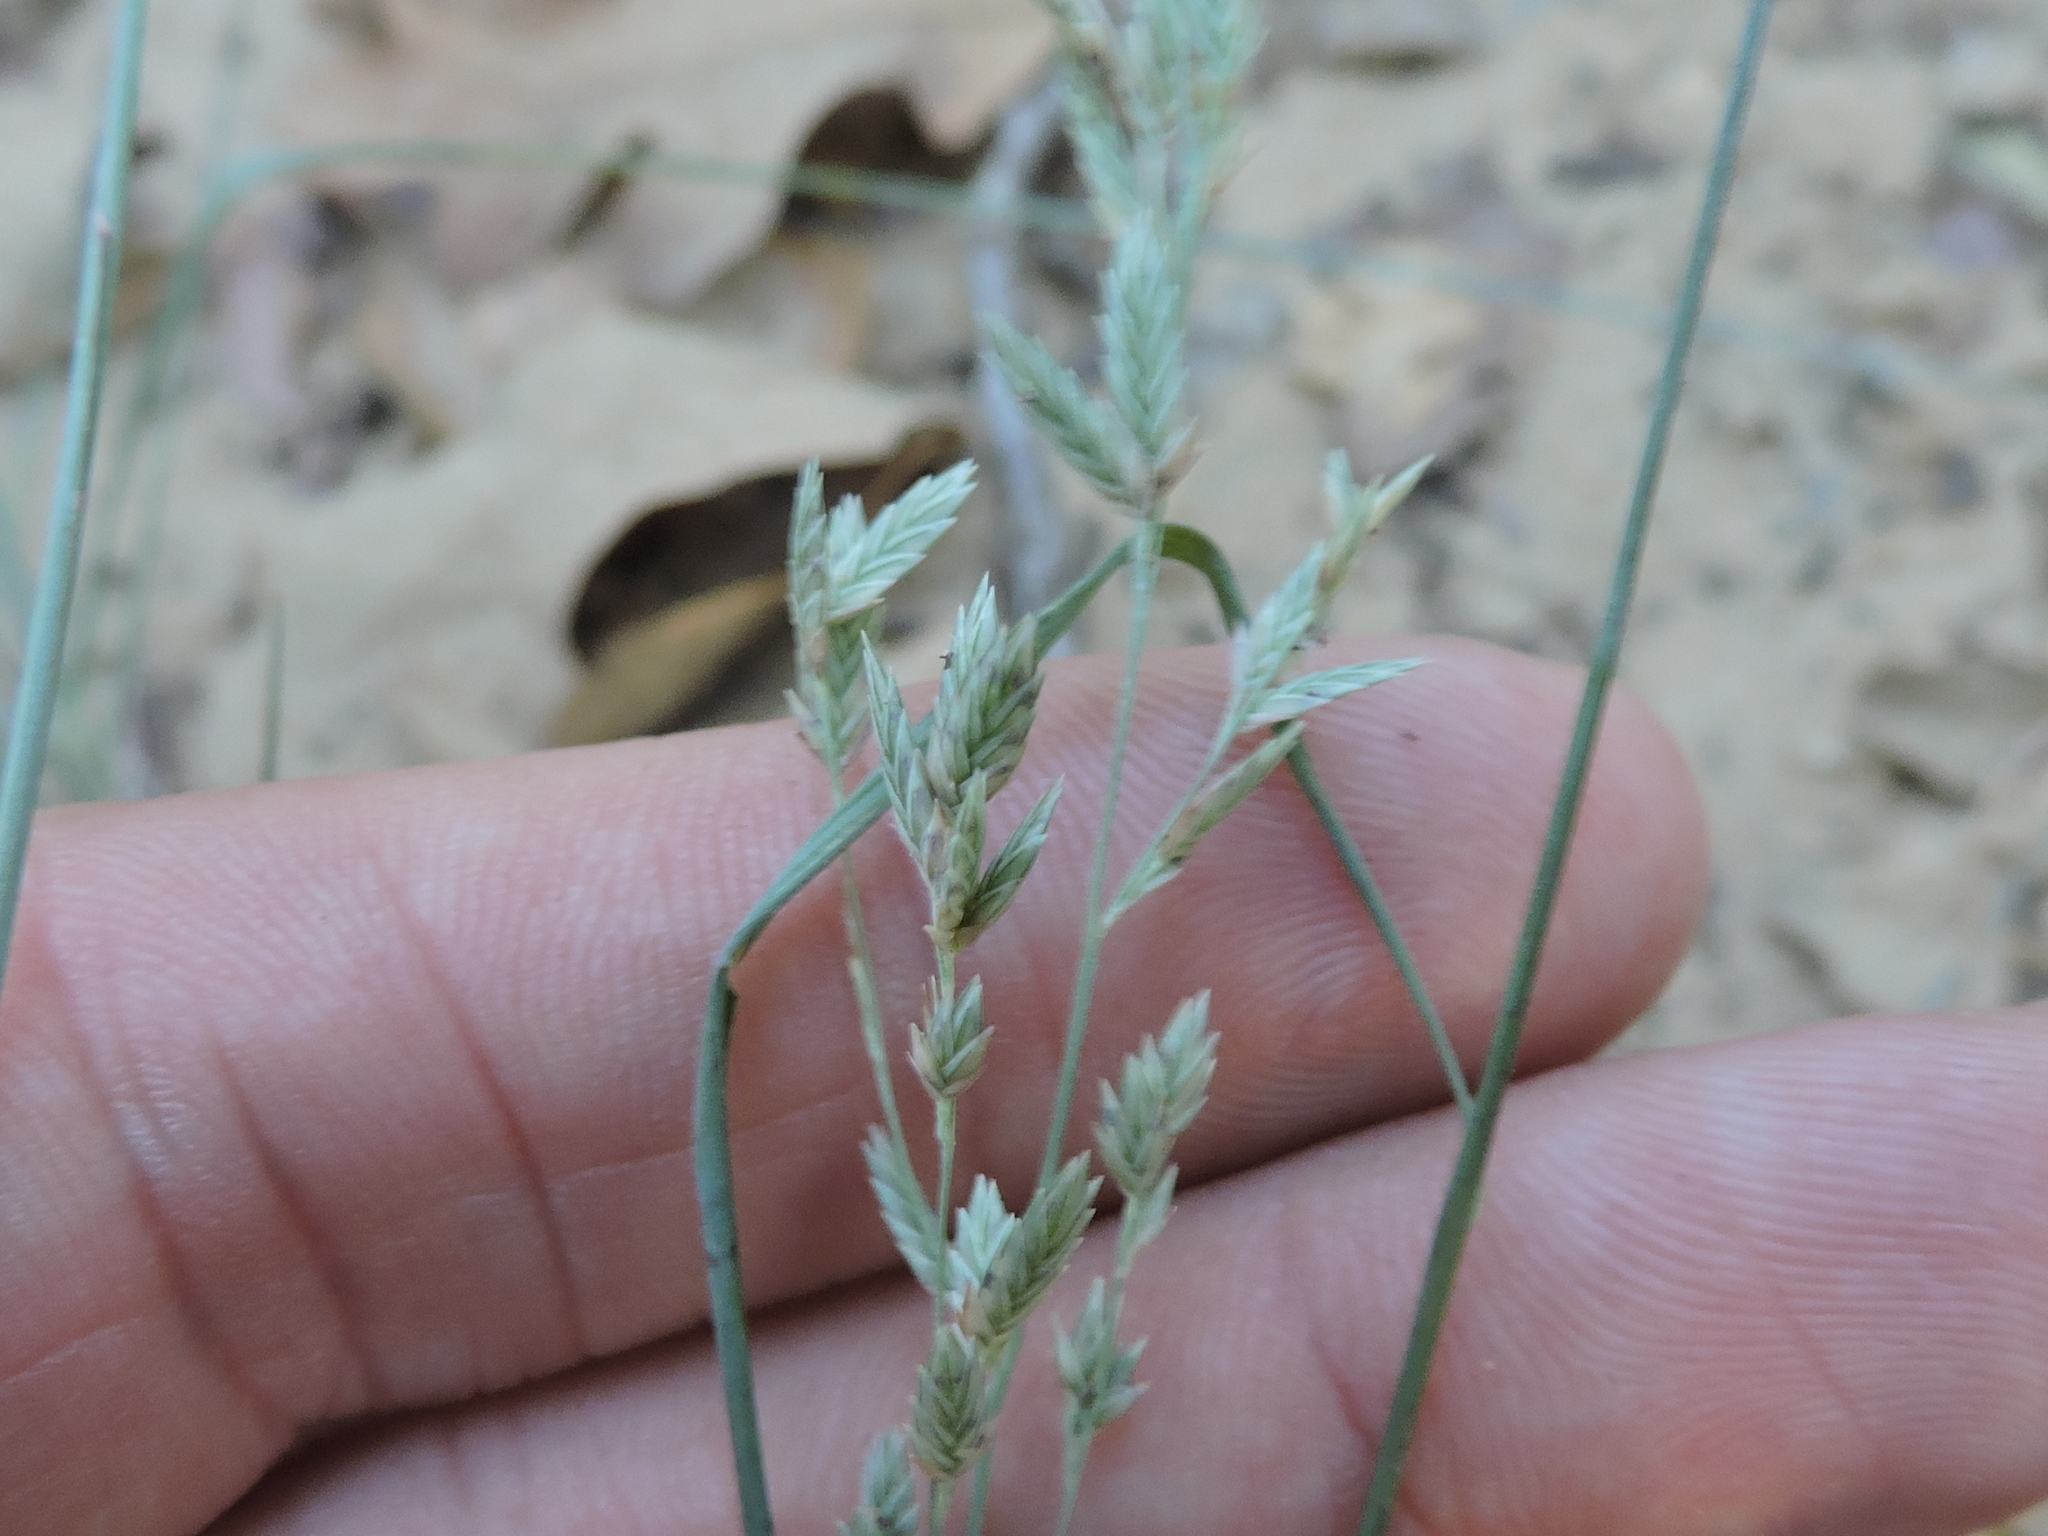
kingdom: Plantae
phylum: Tracheophyta
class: Liliopsida
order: Poales
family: Poaceae
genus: Eragrostis
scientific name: Eragrostis secundiflora
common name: Red love grass
